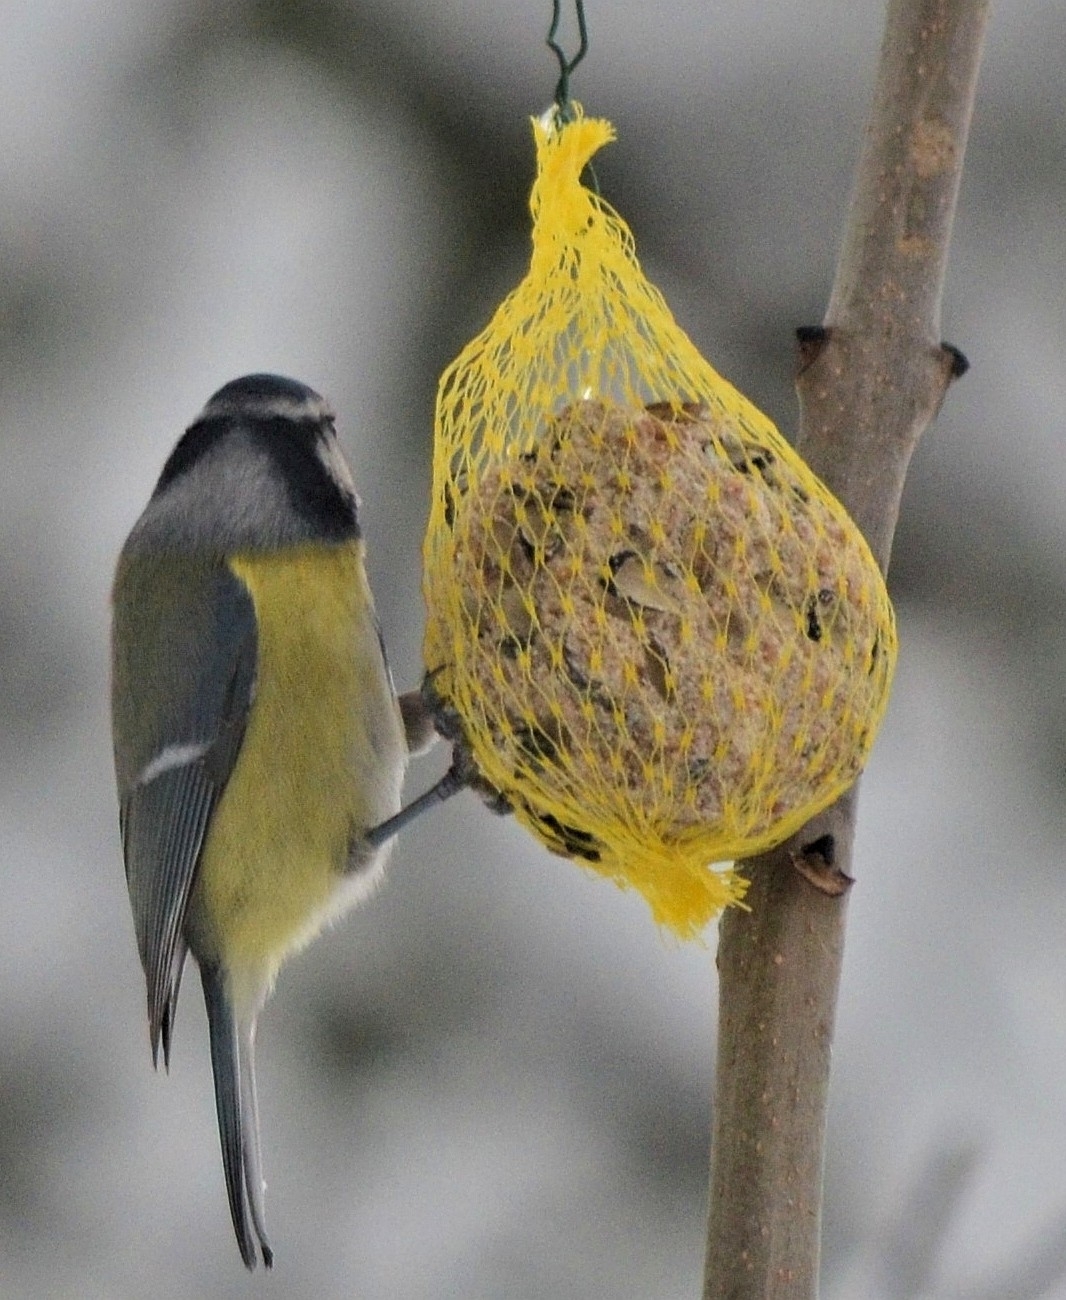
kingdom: Animalia
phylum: Chordata
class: Aves
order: Passeriformes
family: Paridae
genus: Cyanistes
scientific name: Cyanistes caeruleus
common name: Eurasian blue tit
